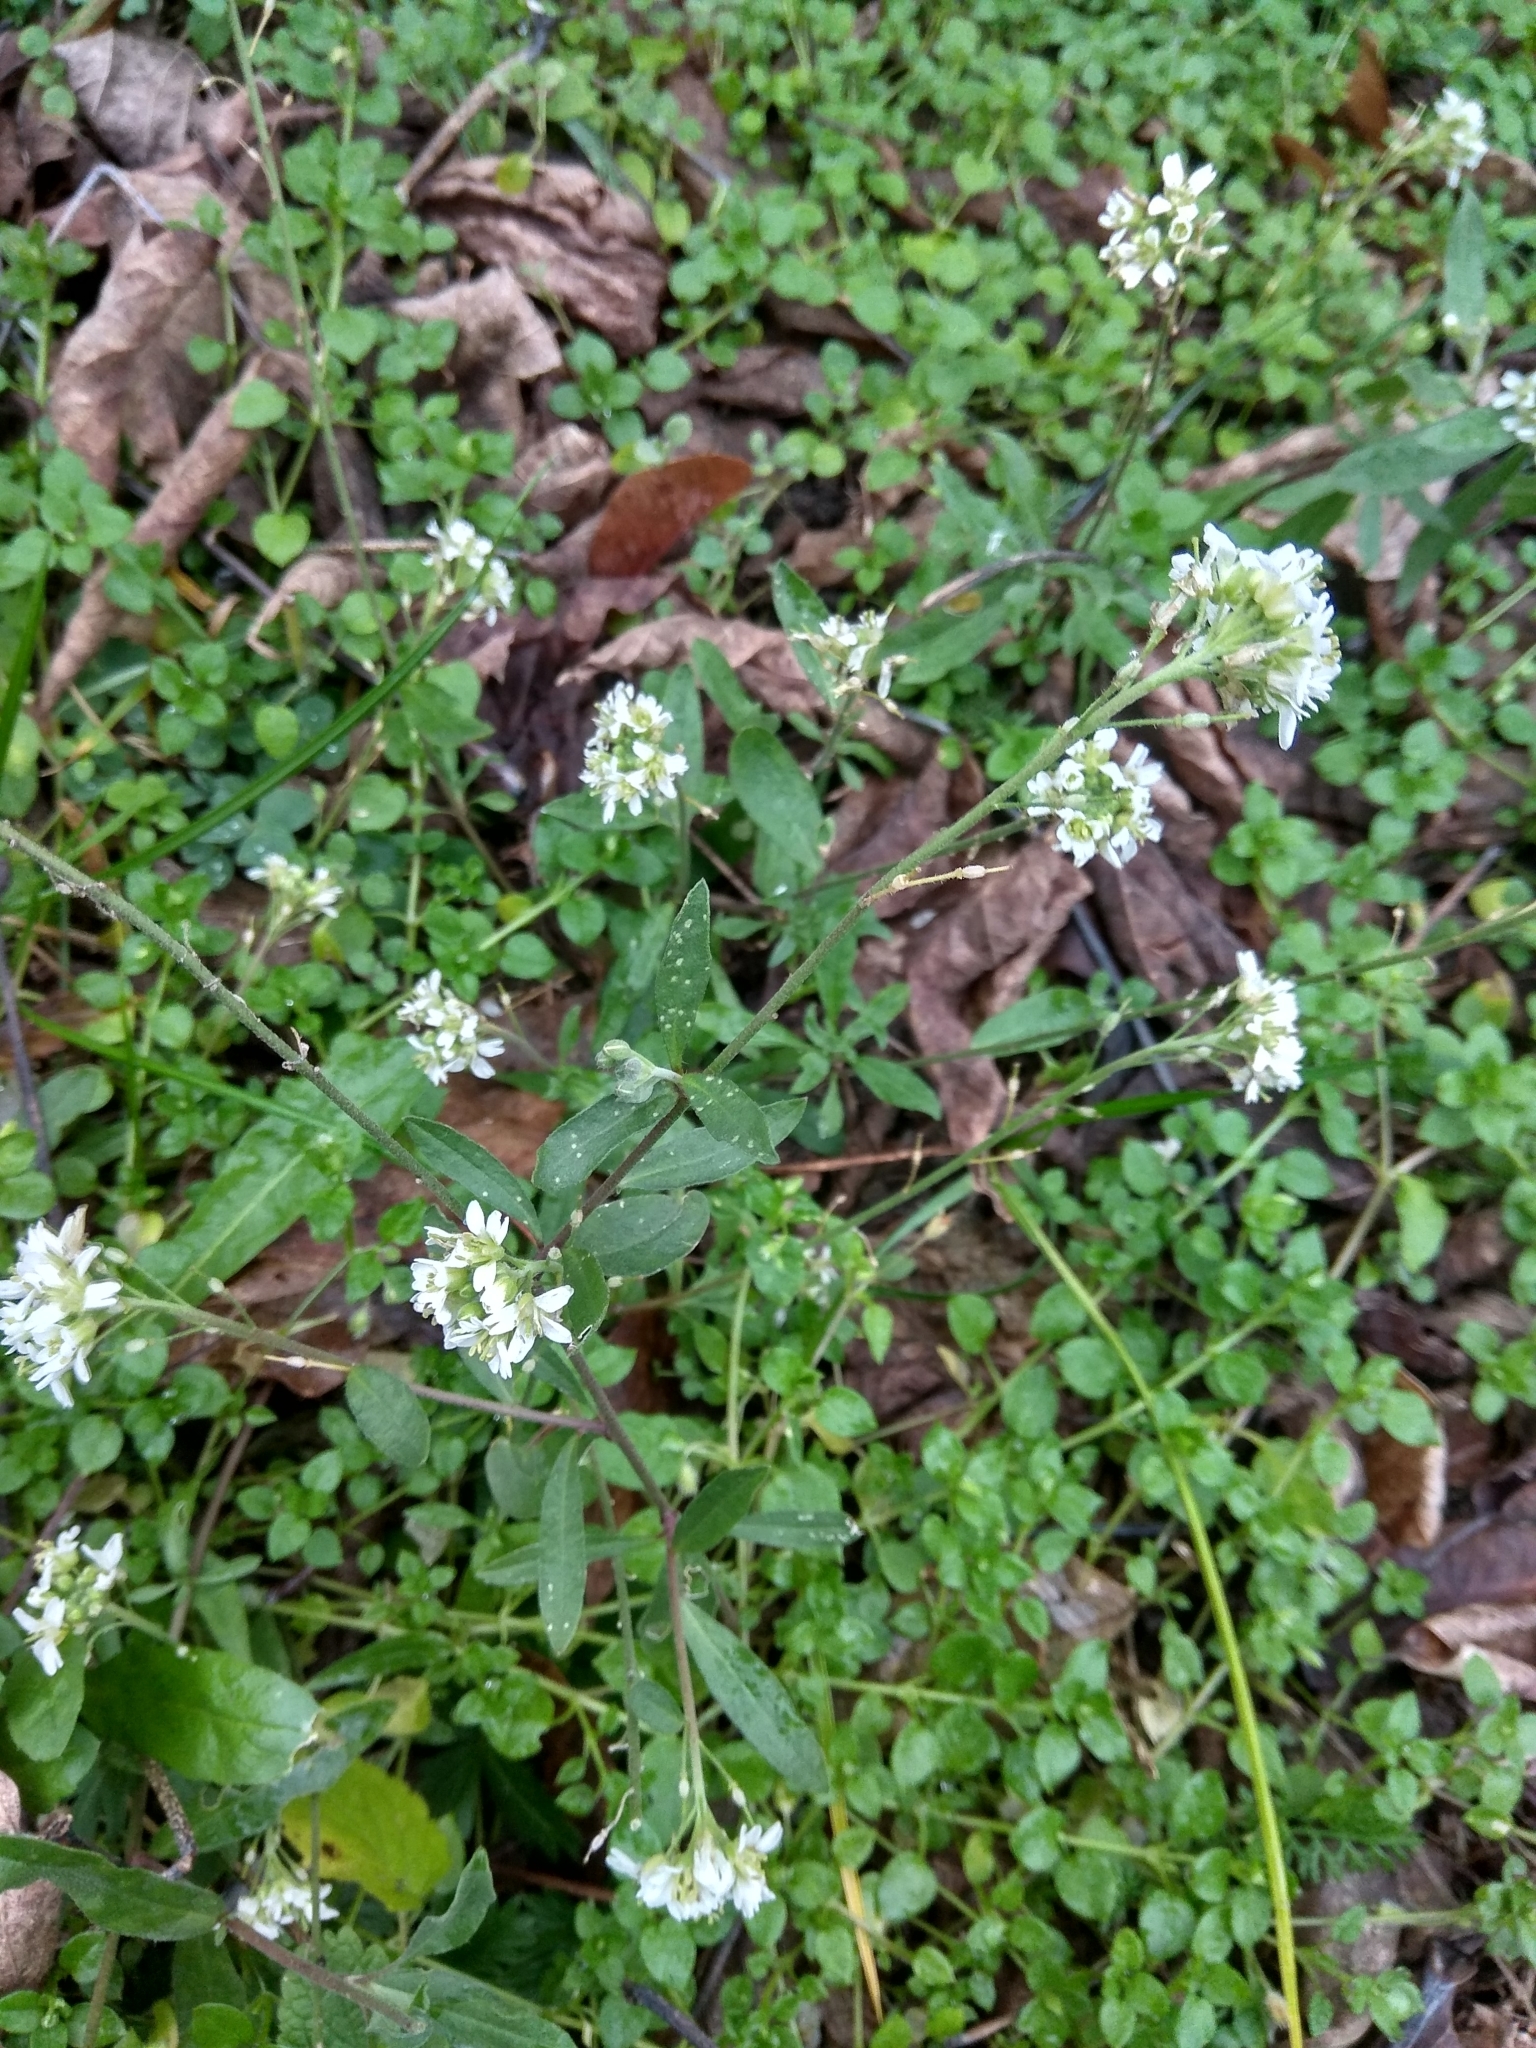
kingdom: Plantae
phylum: Tracheophyta
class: Magnoliopsida
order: Brassicales
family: Brassicaceae
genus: Berteroa
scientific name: Berteroa incana
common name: Hoary alison
